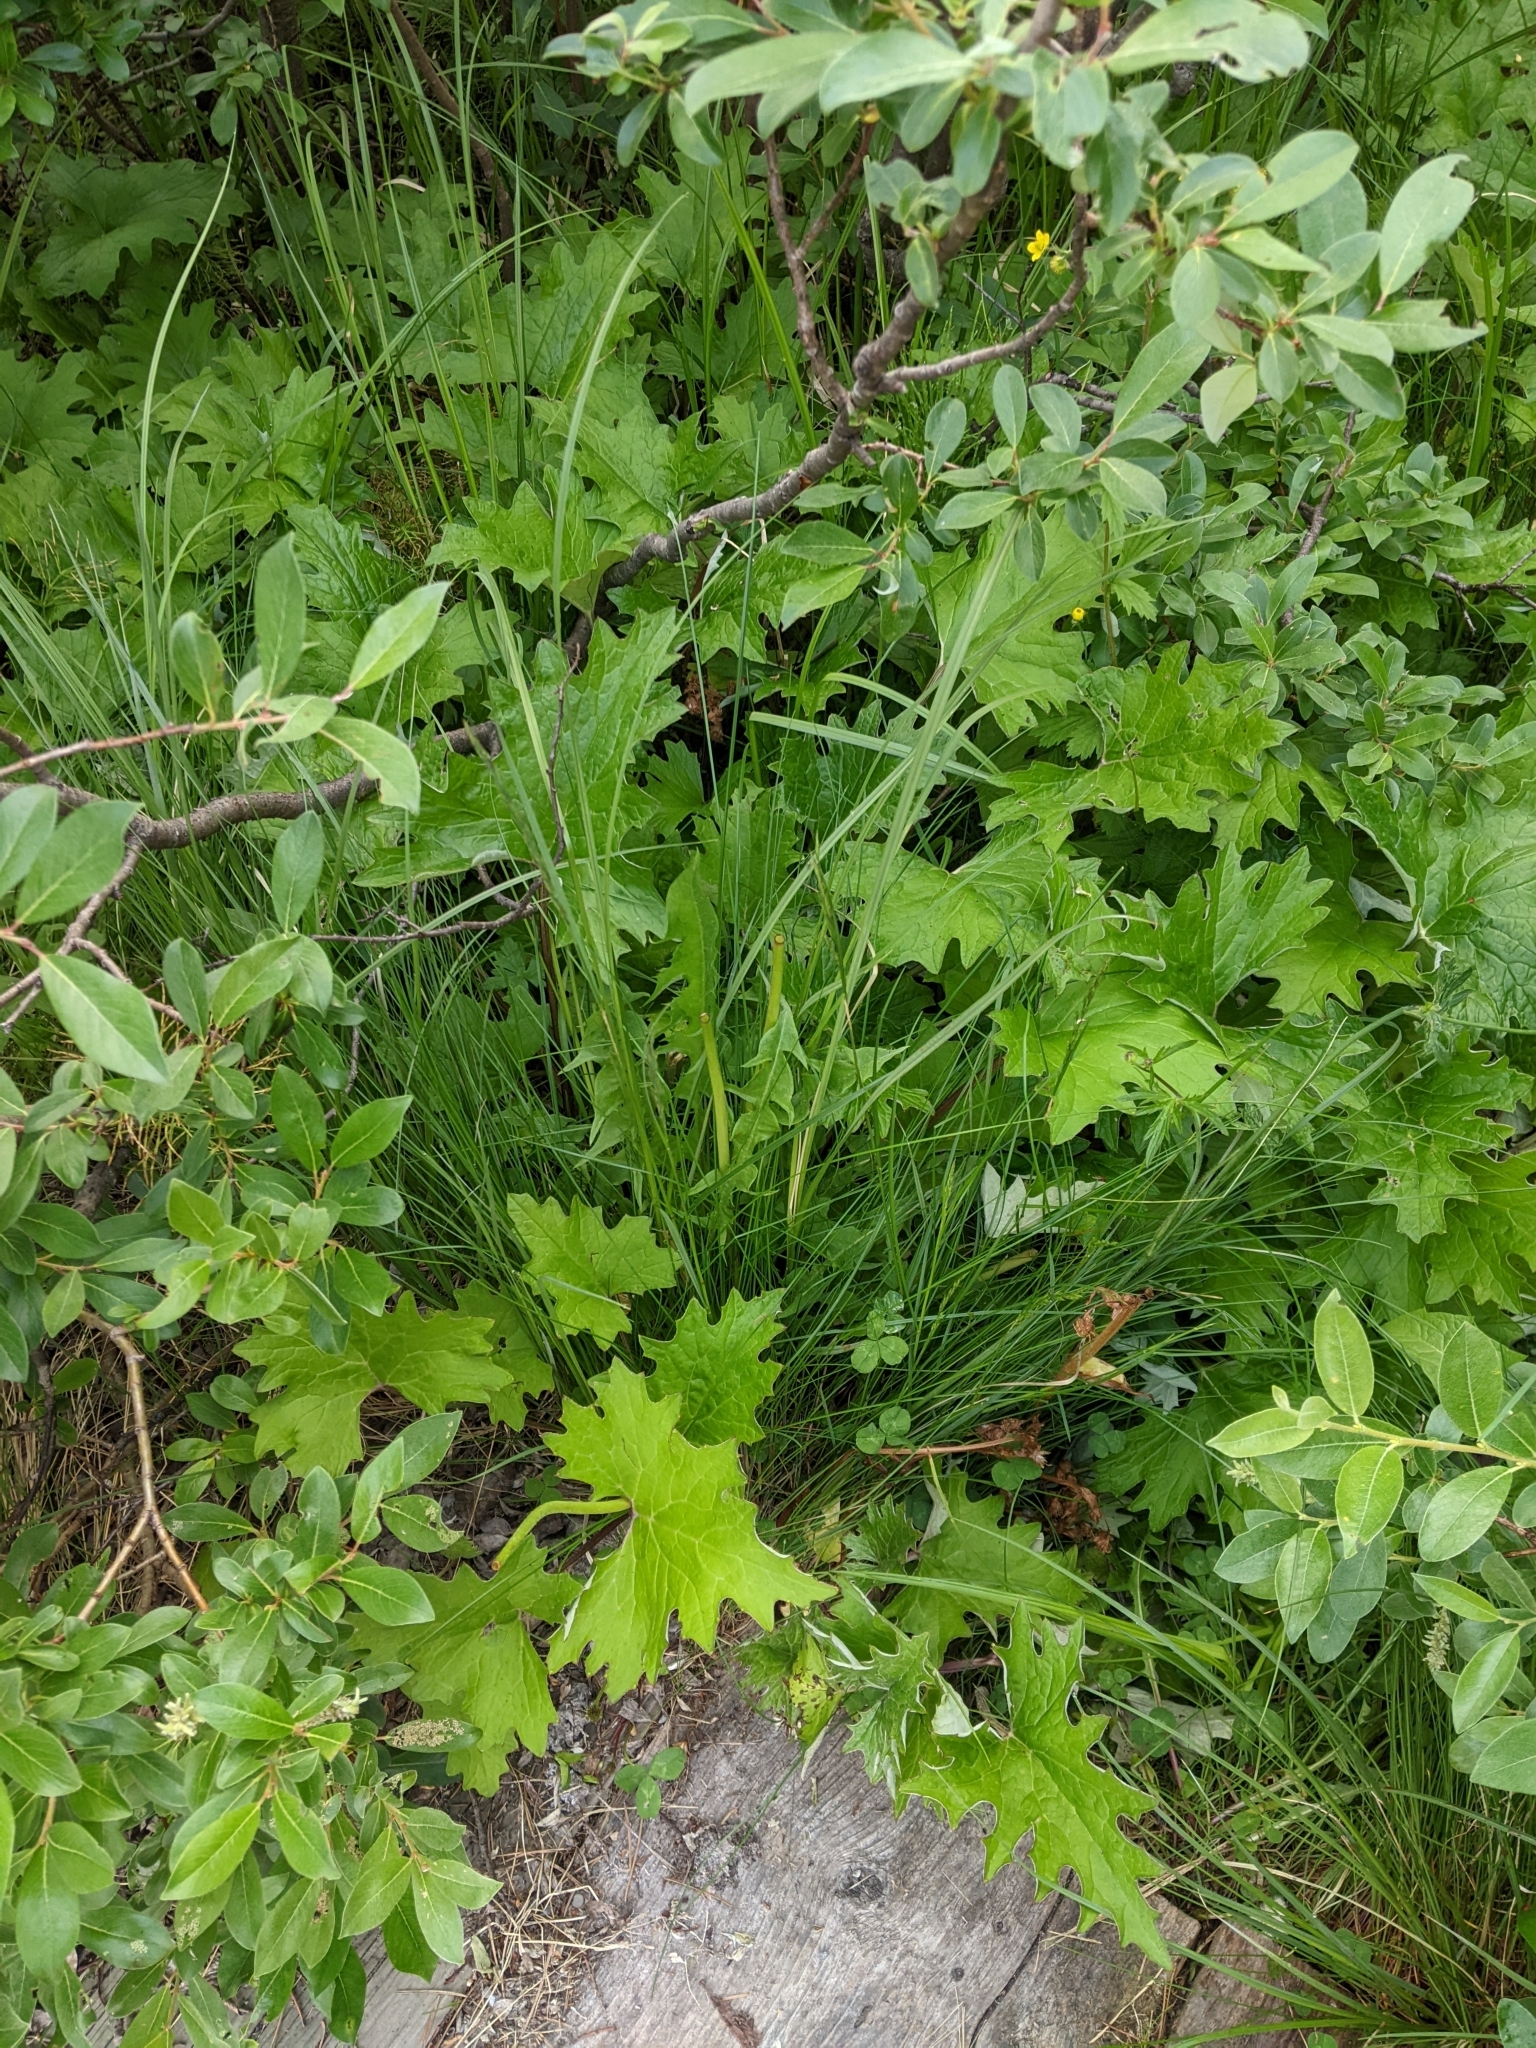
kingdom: Plantae
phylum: Tracheophyta
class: Magnoliopsida
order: Asterales
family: Asteraceae
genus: Petasites
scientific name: Petasites frigidus
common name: Arctic butterbur
